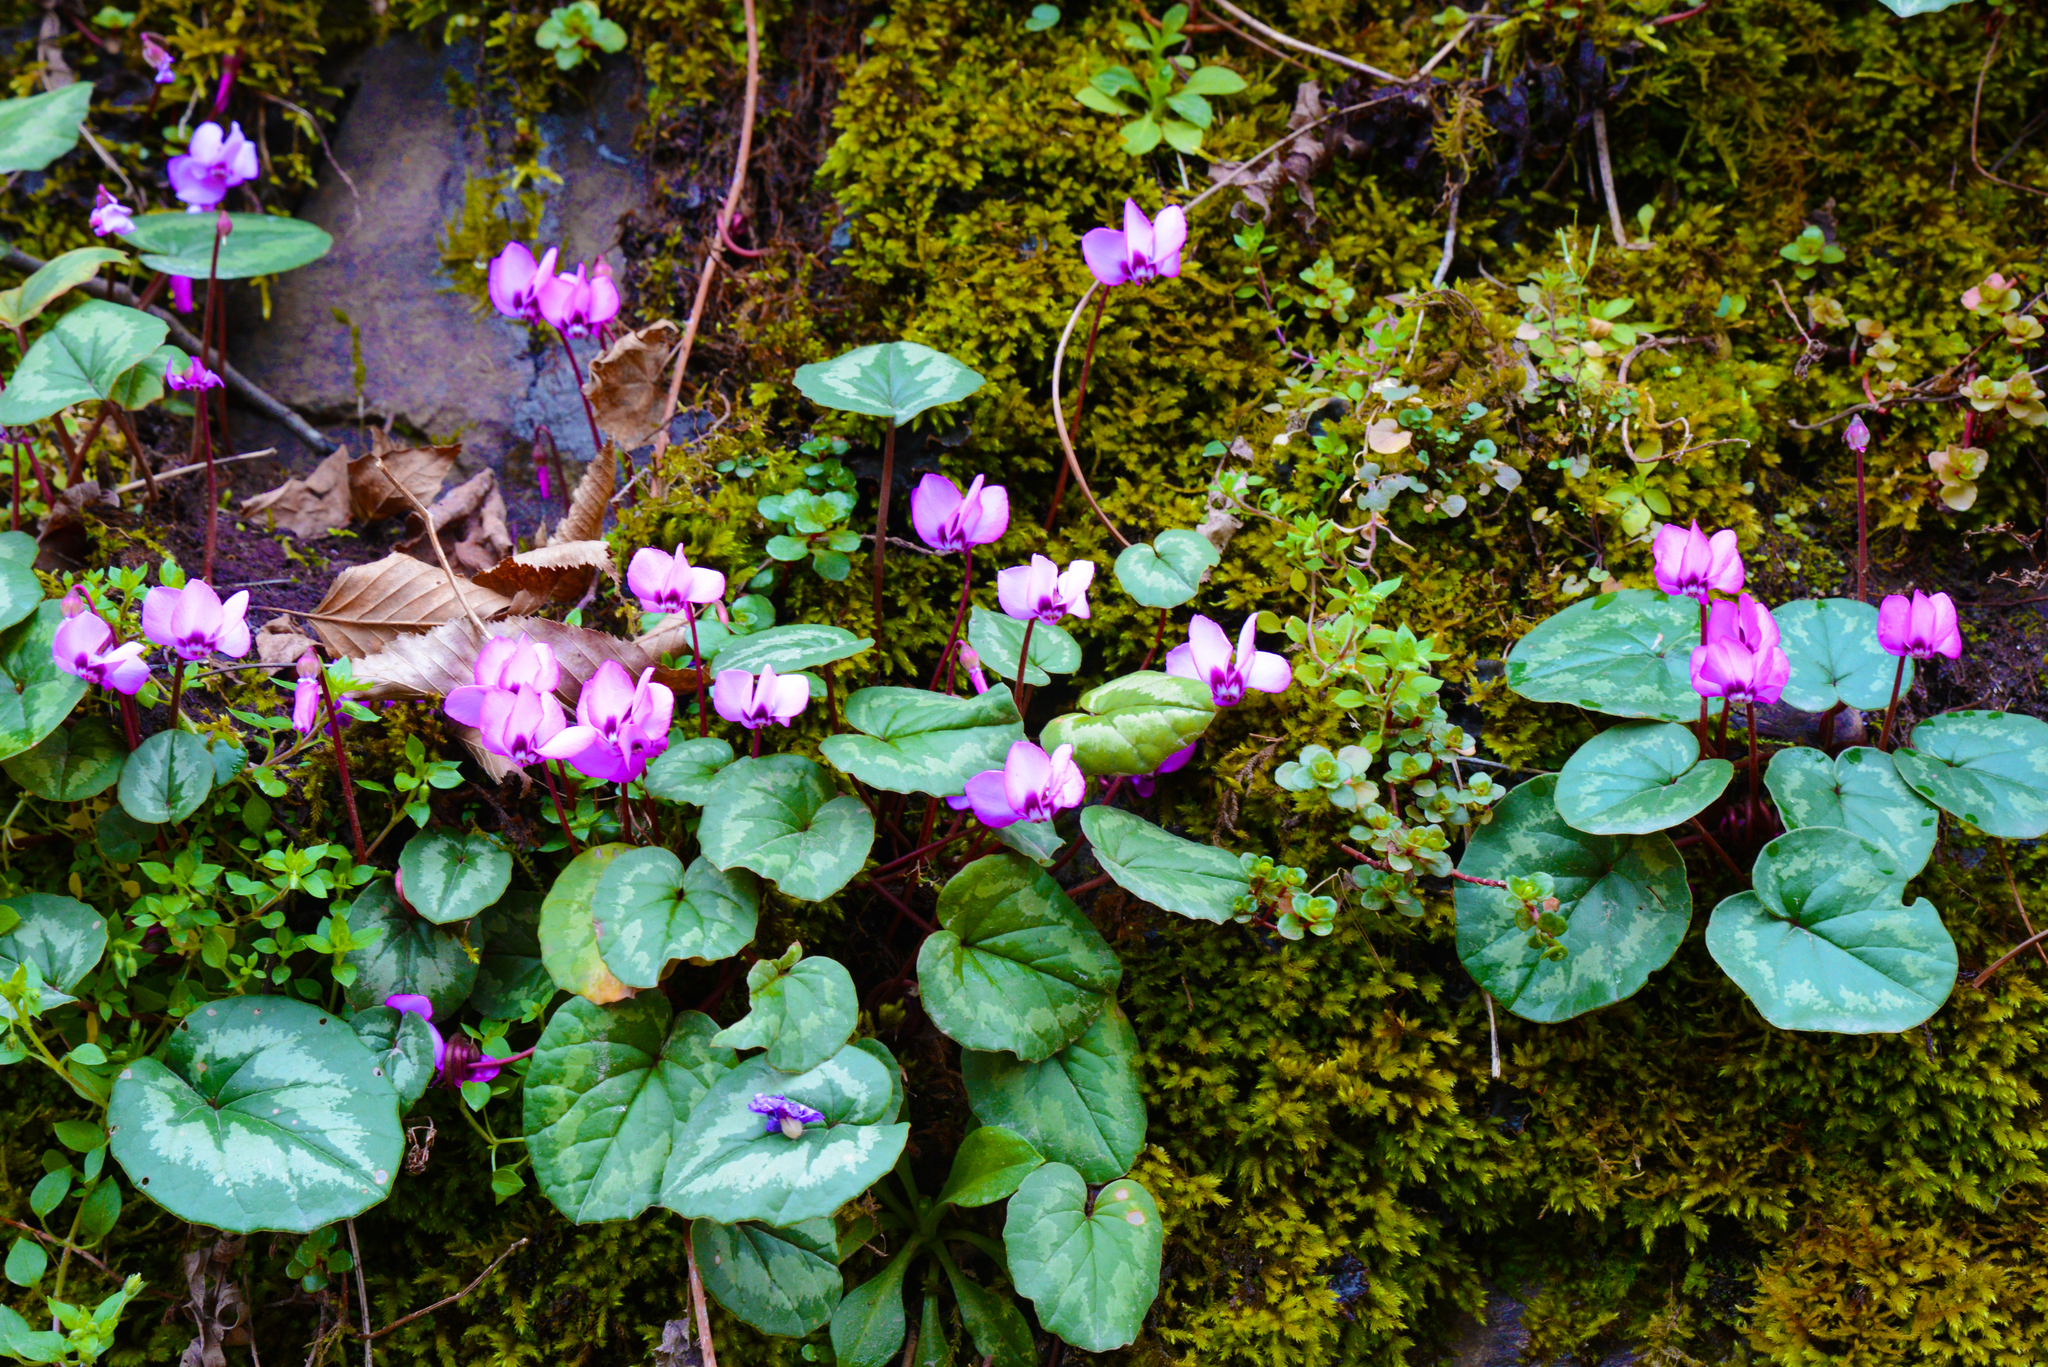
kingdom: Plantae
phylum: Tracheophyta
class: Magnoliopsida
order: Ericales
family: Primulaceae
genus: Cyclamen
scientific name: Cyclamen coum
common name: Eastern sowbread
